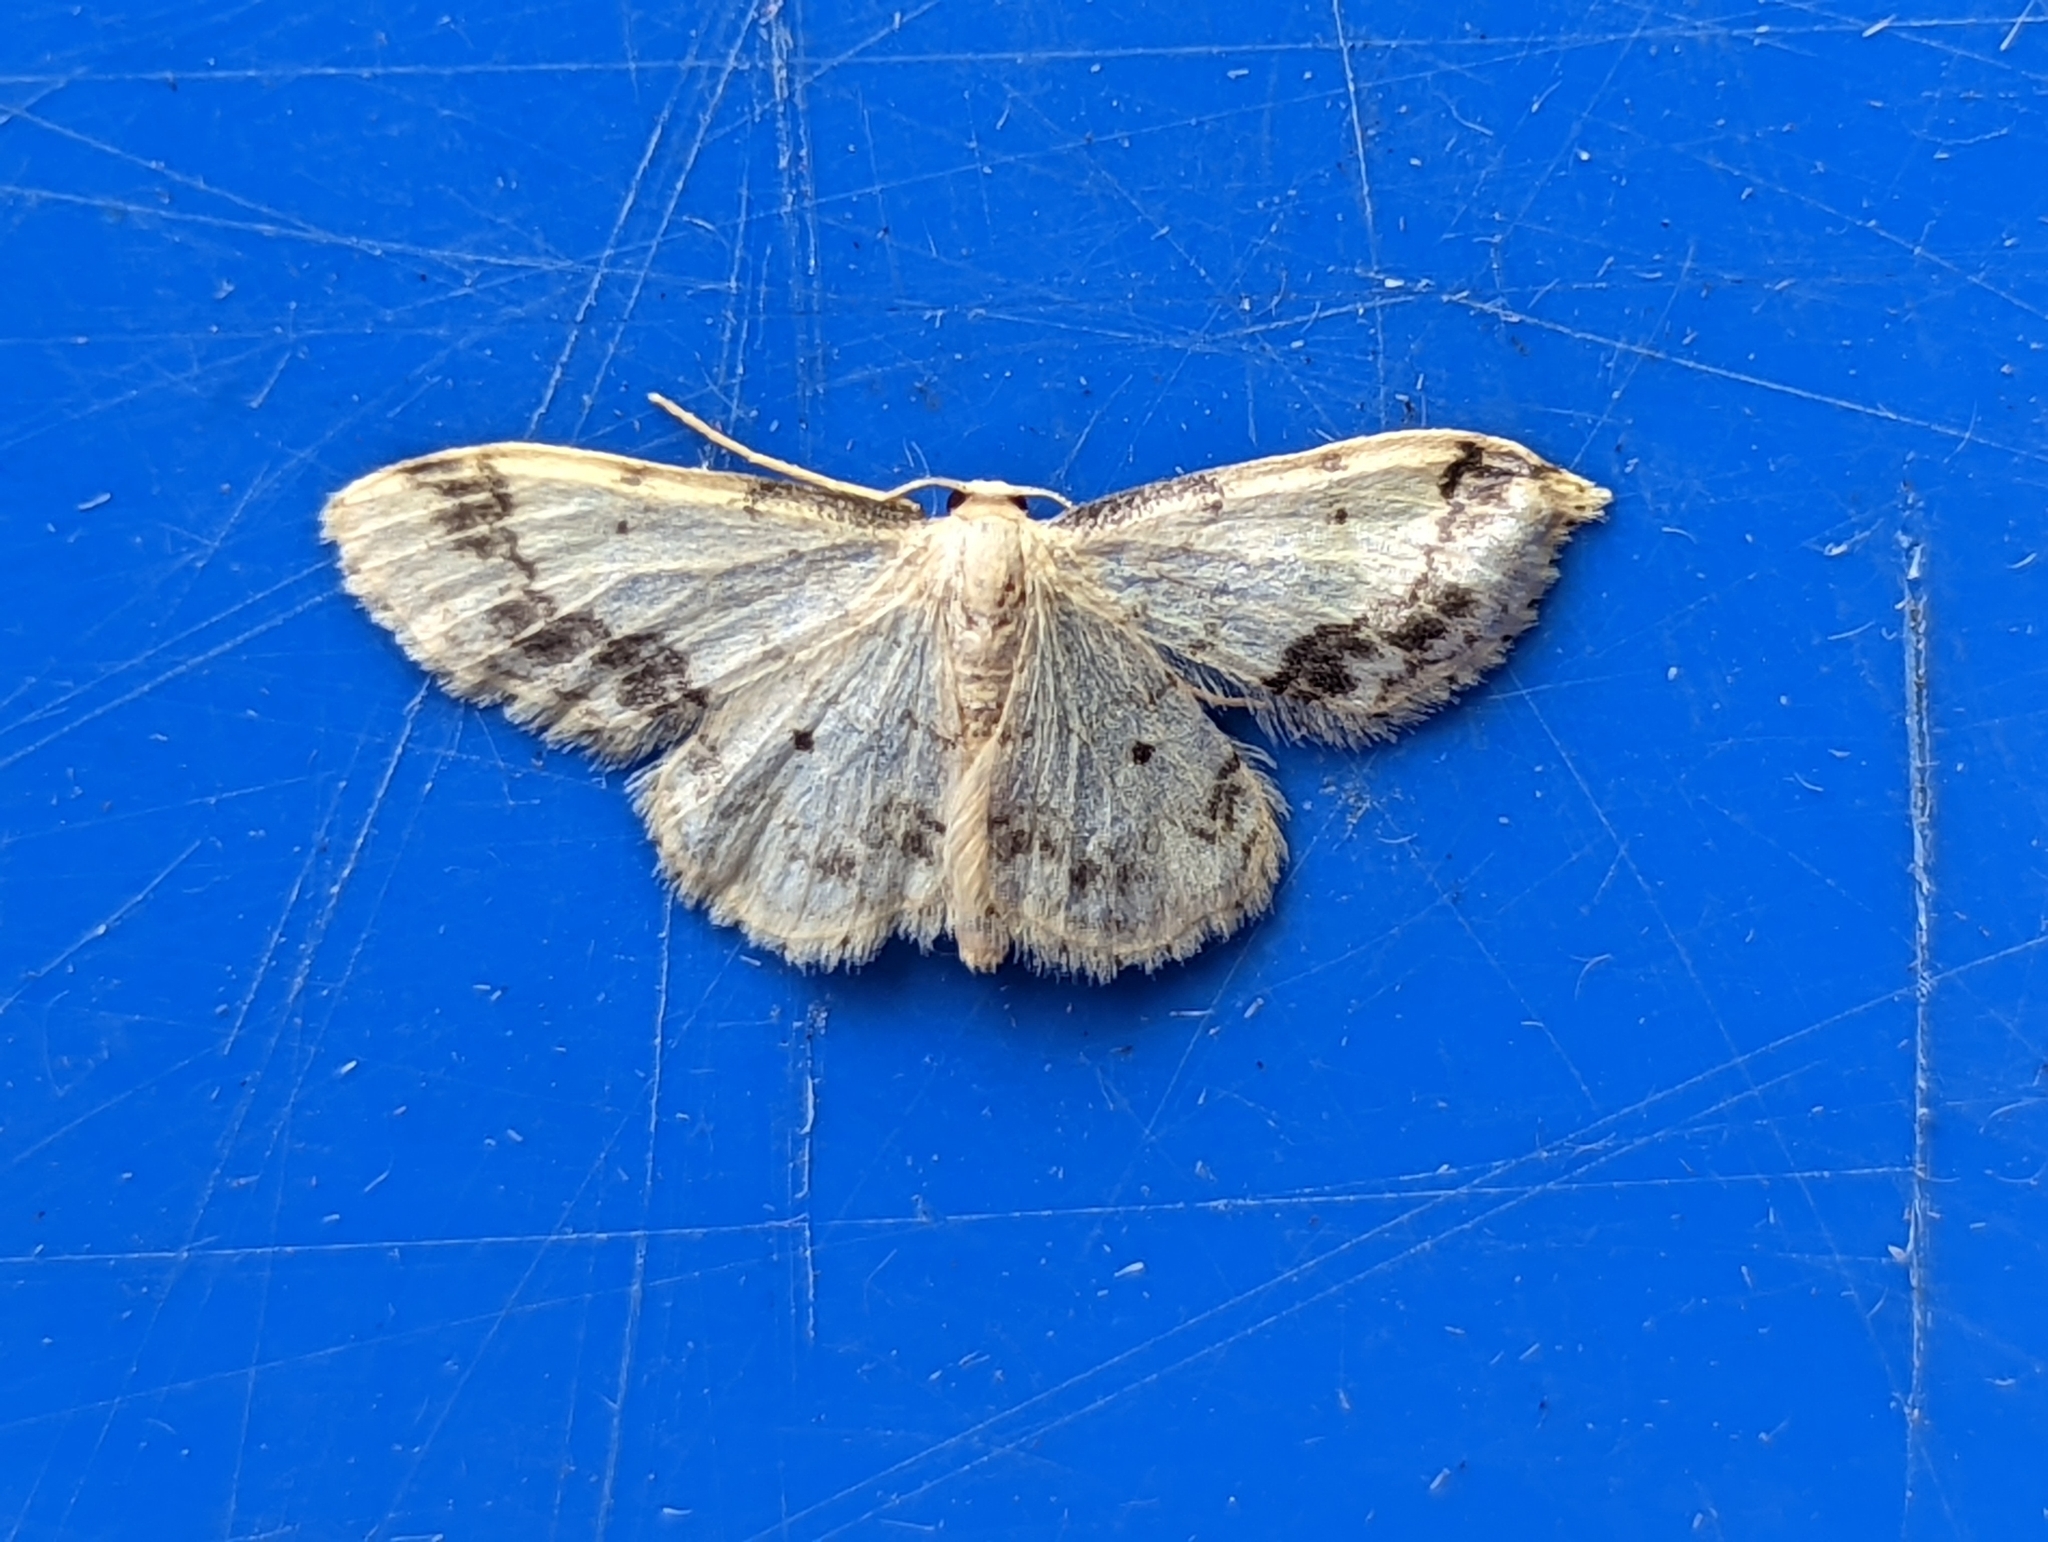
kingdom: Animalia
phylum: Arthropoda
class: Insecta
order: Lepidoptera
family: Geometridae
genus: Idaea
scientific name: Idaea trigeminata
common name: Treble brown spot
